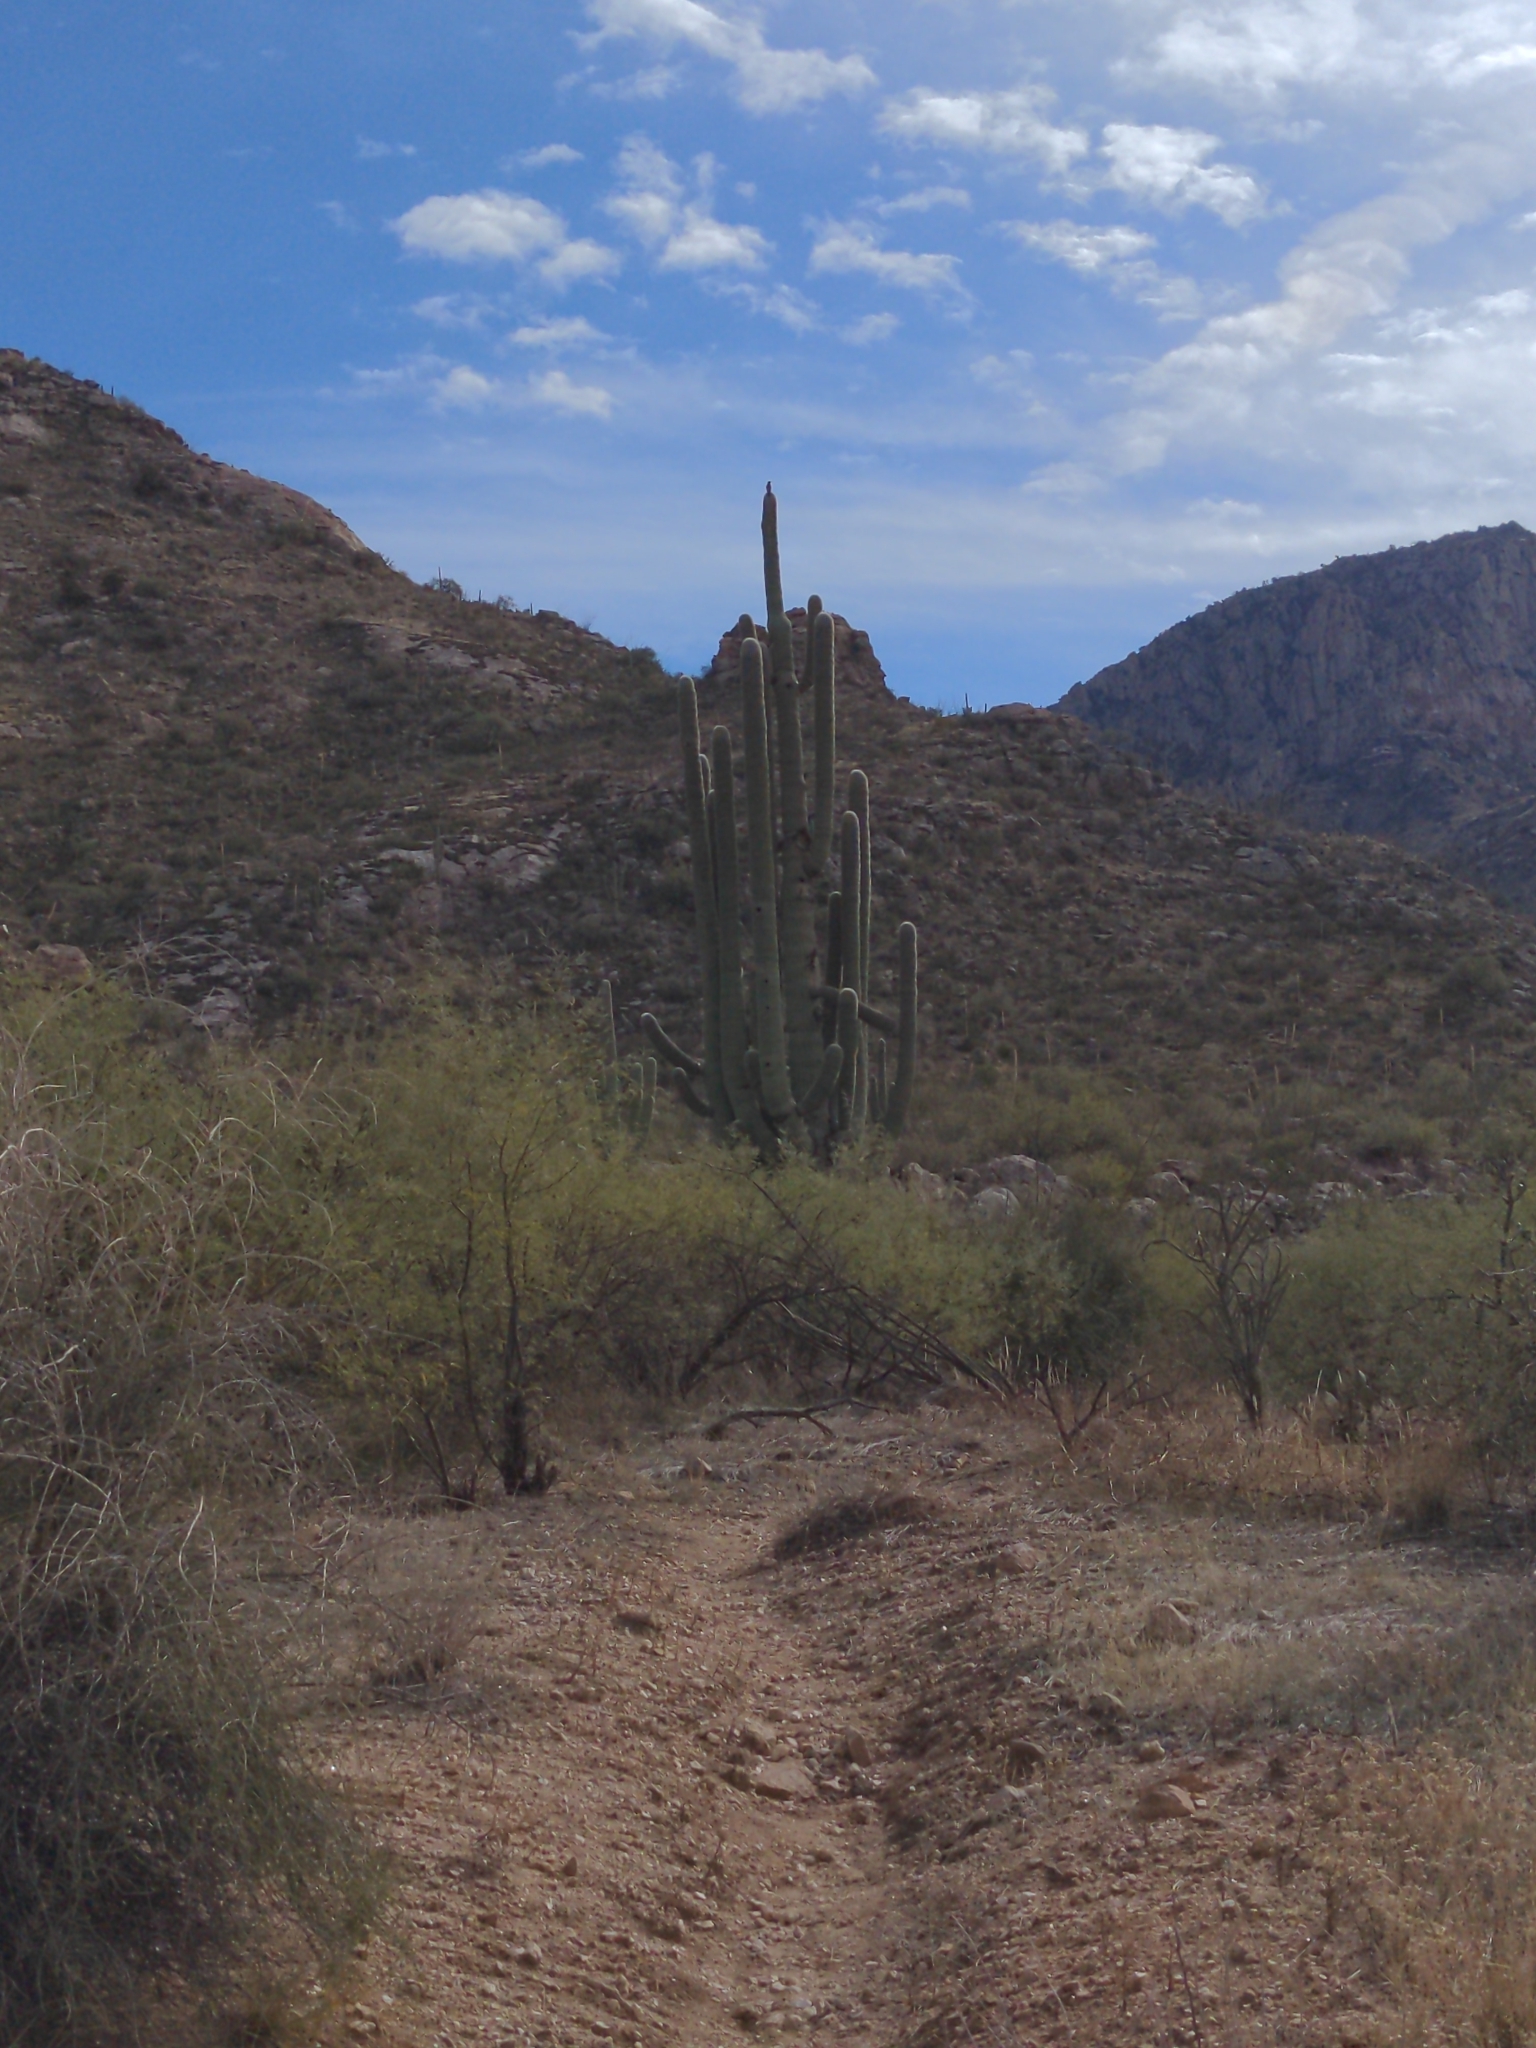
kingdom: Plantae
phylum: Tracheophyta
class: Magnoliopsida
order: Caryophyllales
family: Cactaceae
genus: Carnegiea
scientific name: Carnegiea gigantea
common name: Saguaro
